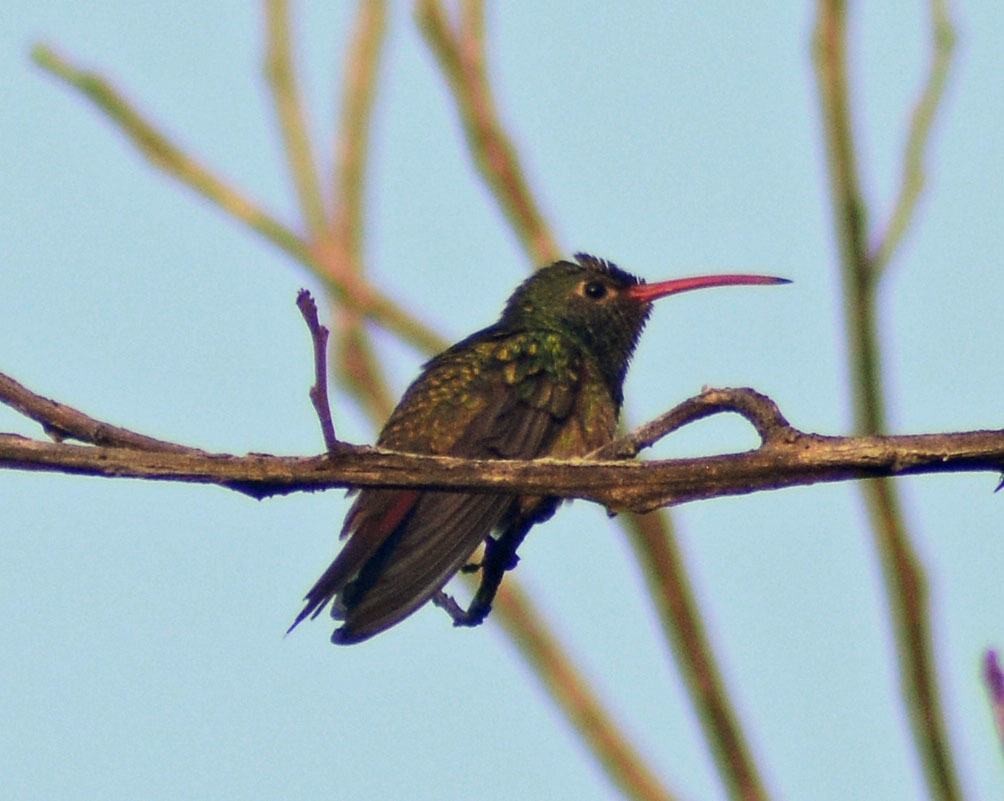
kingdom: Animalia
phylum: Chordata
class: Aves
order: Apodiformes
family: Trochilidae
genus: Amazilia
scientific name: Amazilia yucatanensis
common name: Buff-bellied hummingbird
